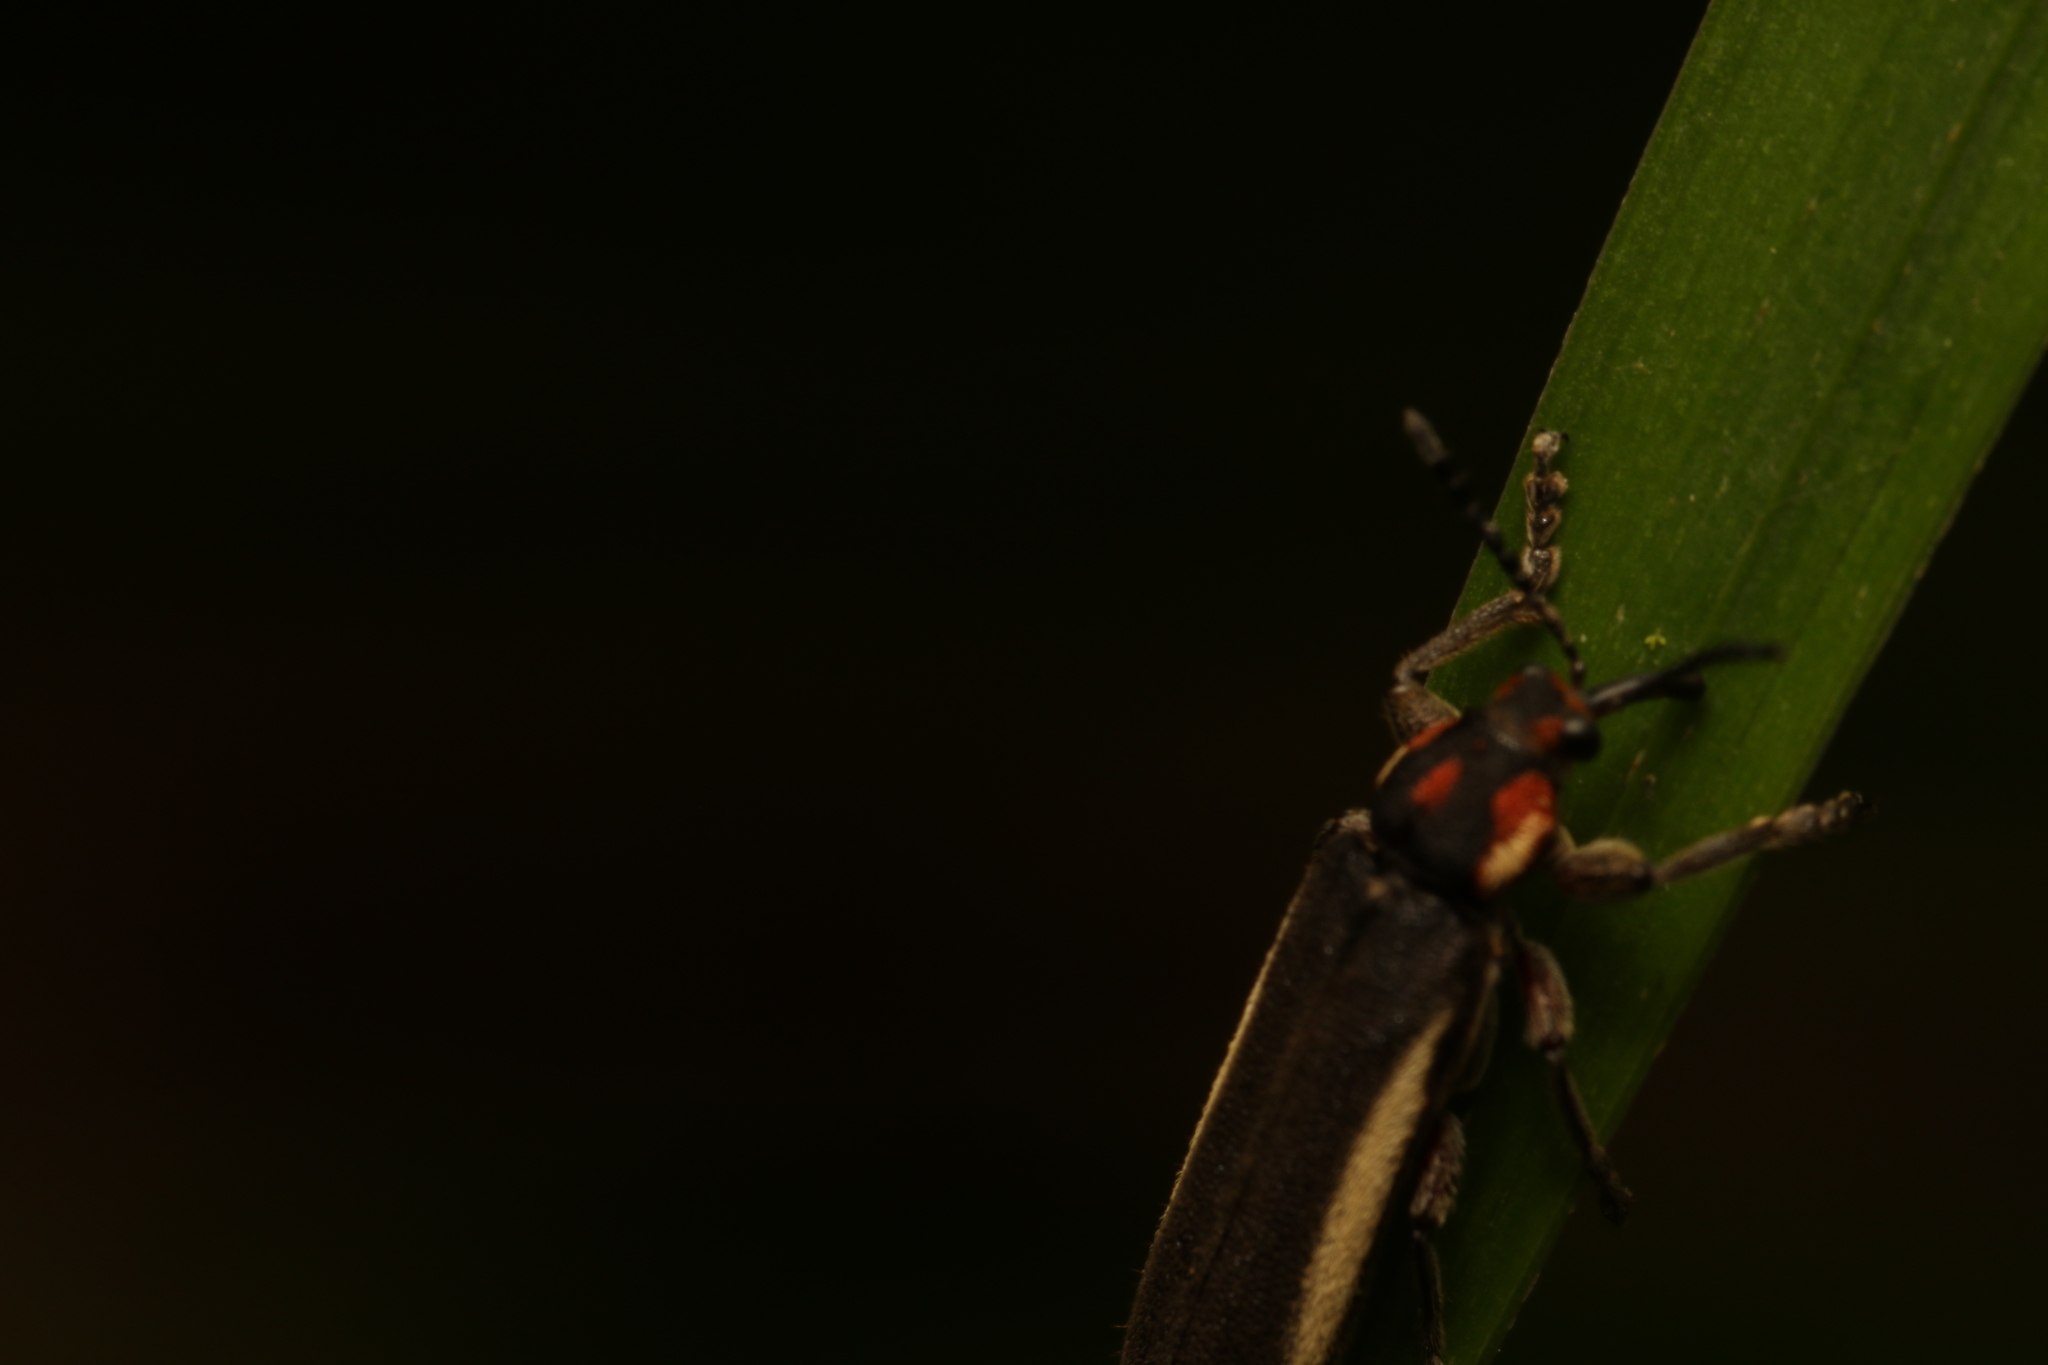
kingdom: Animalia
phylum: Arthropoda
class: Insecta
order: Coleoptera
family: Belidae
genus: Homalocerus
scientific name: Homalocerus nigripennis
